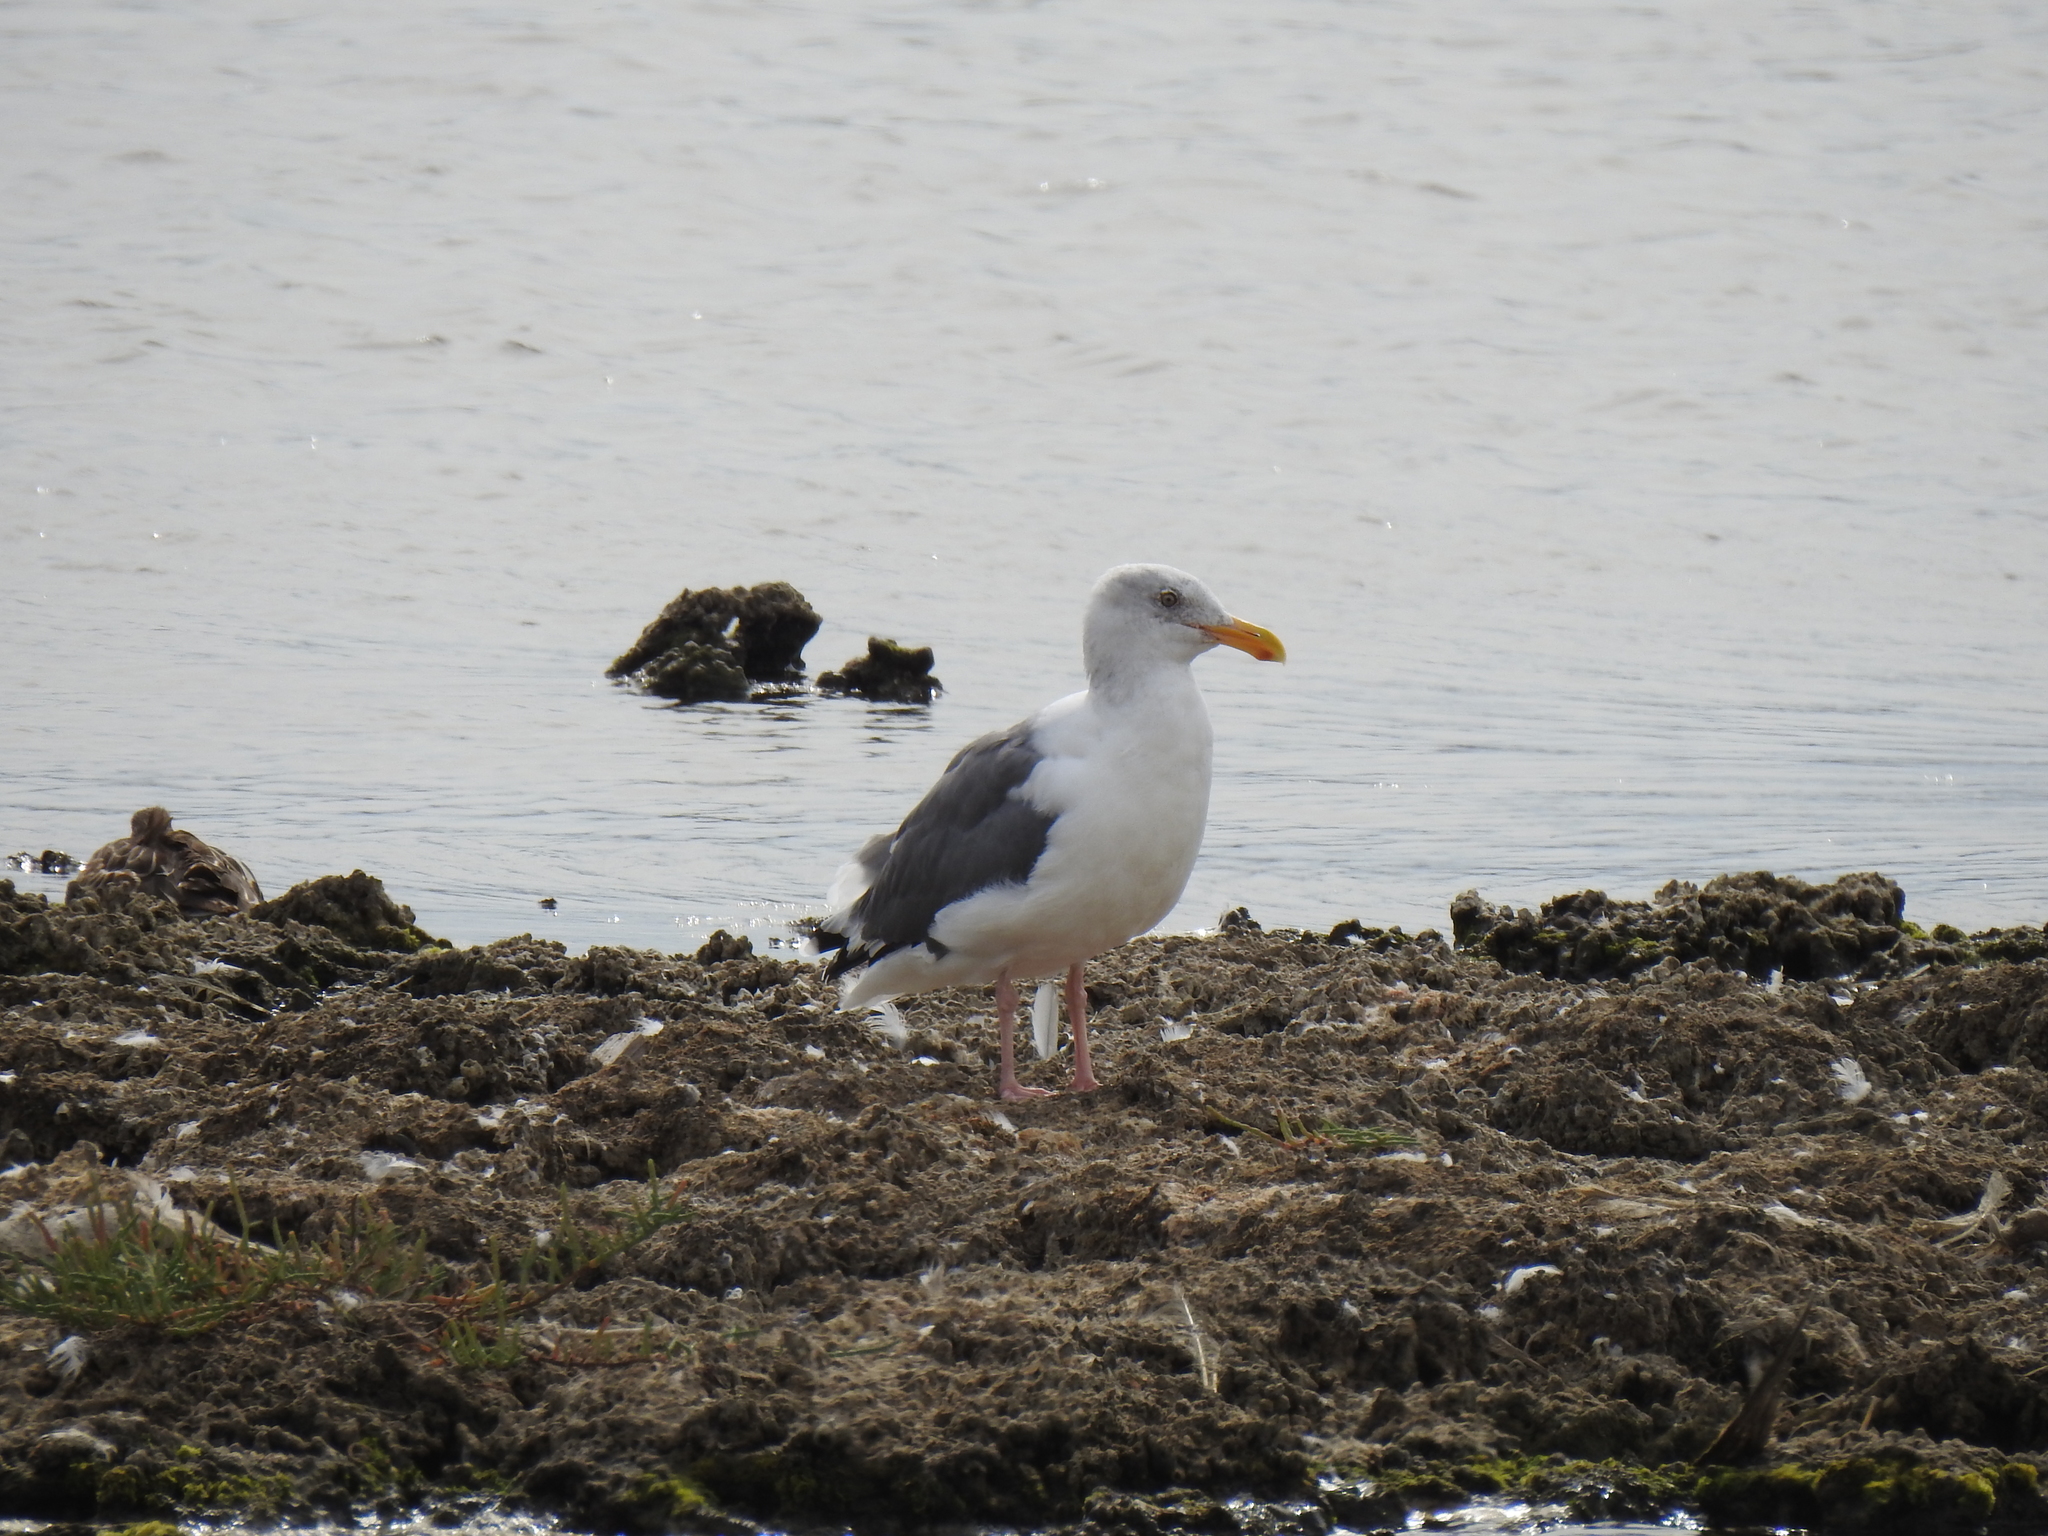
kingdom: Animalia
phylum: Chordata
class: Aves
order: Charadriiformes
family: Laridae
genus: Larus
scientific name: Larus occidentalis
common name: Western gull
